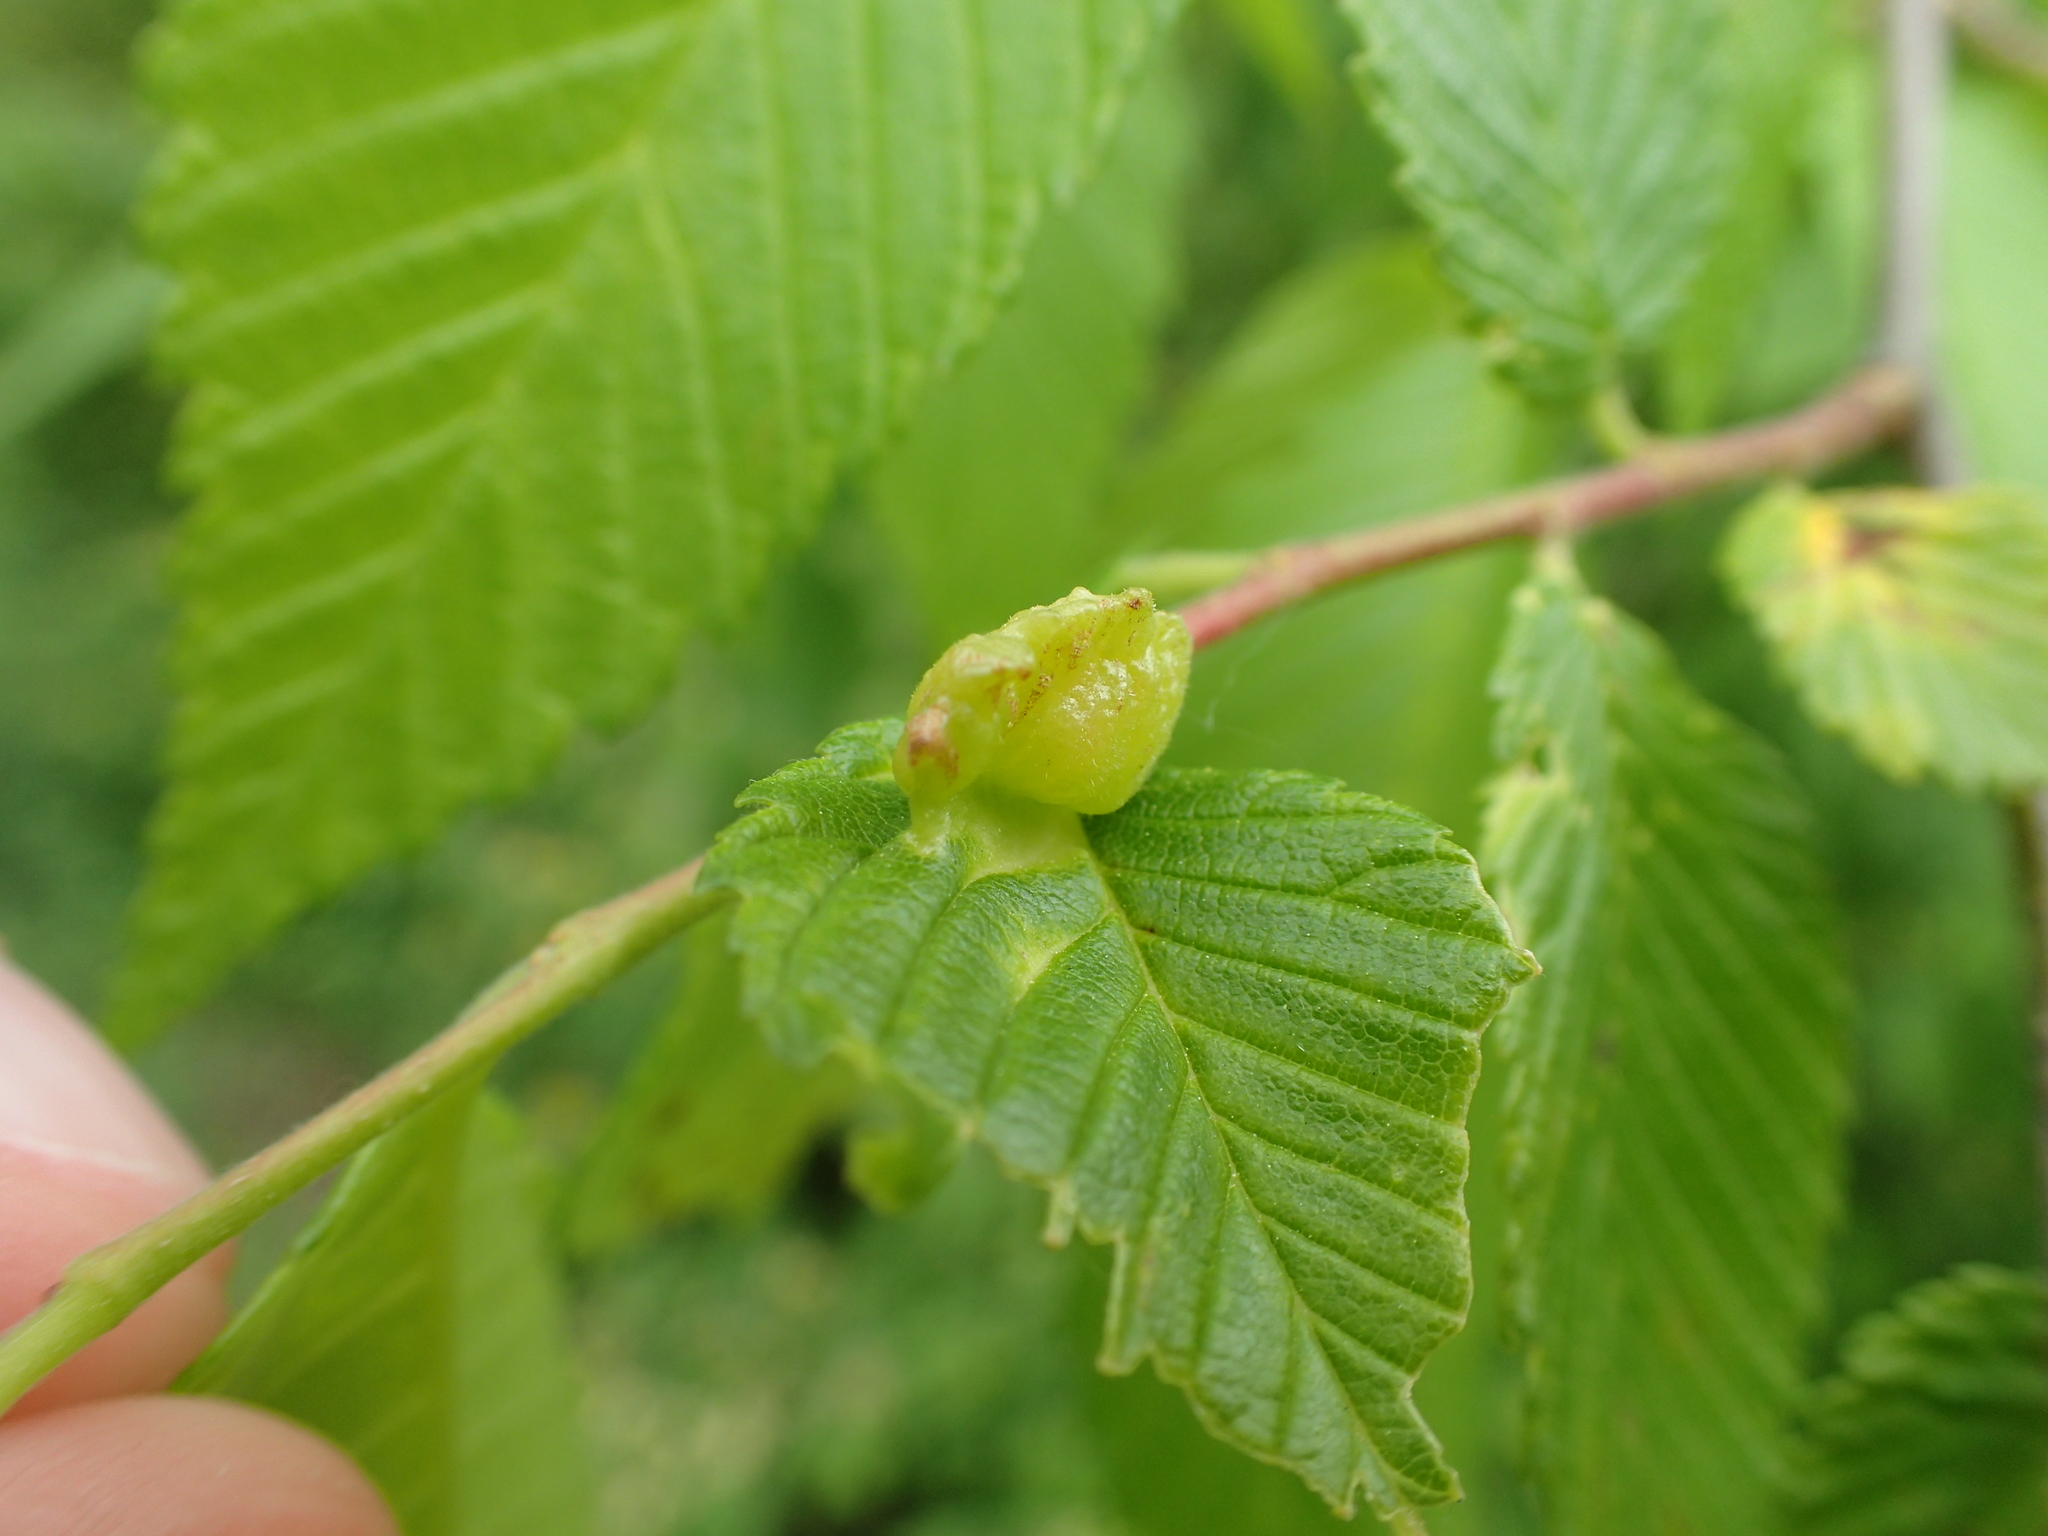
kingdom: Animalia
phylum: Arthropoda
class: Insecta
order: Hemiptera
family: Aphididae
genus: Colopha
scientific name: Colopha ulmicola
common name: Elm cockscombgall aphid
